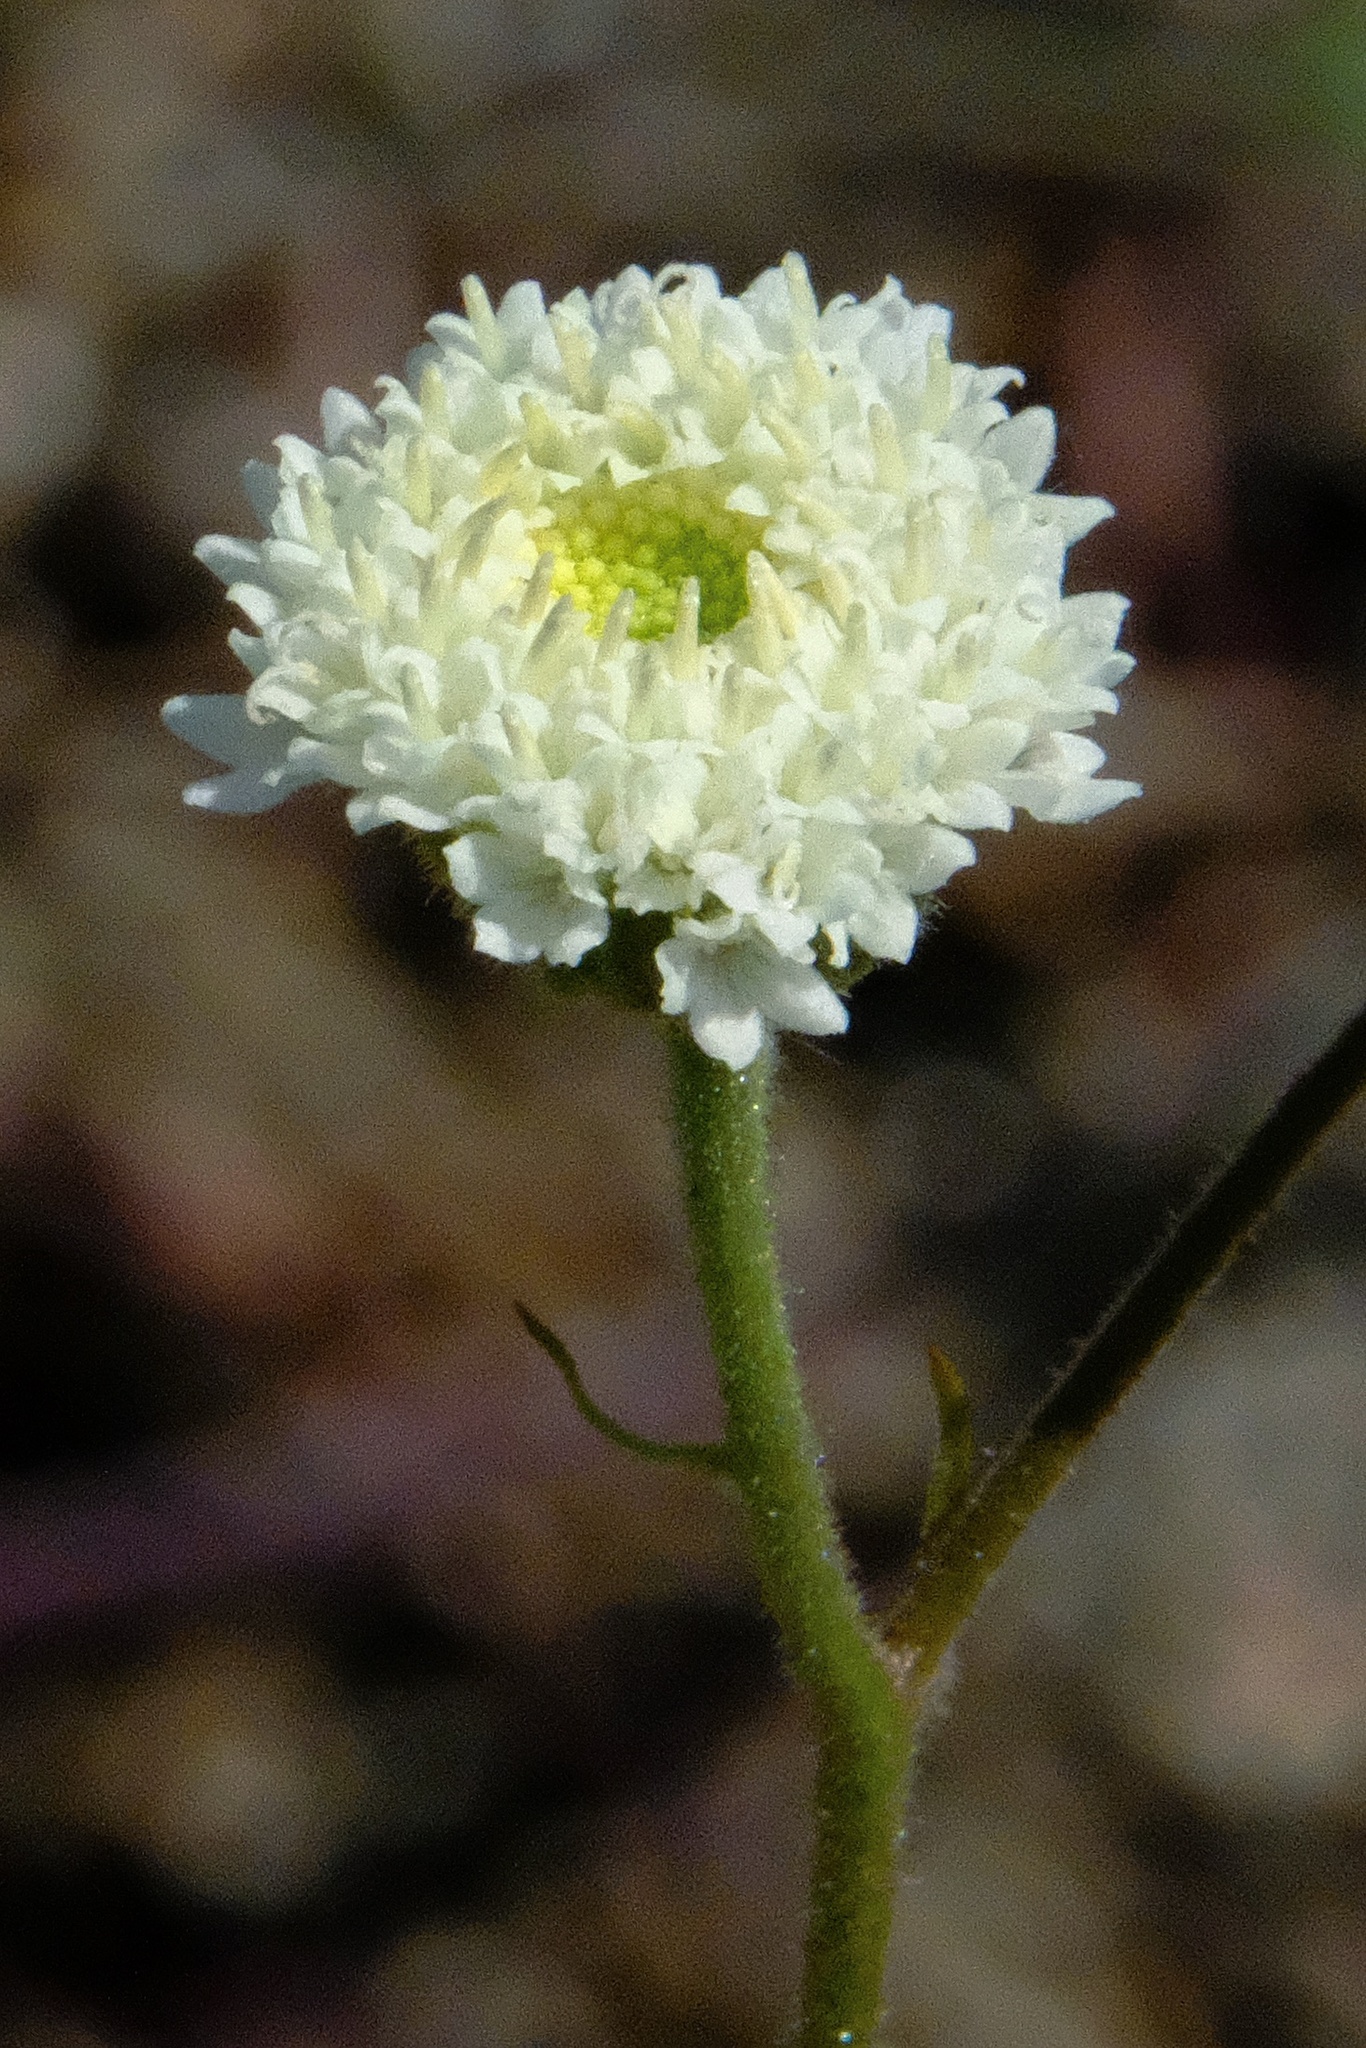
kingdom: Plantae
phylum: Tracheophyta
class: Magnoliopsida
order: Asterales
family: Asteraceae
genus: Chaenactis
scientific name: Chaenactis artemisiifolia
